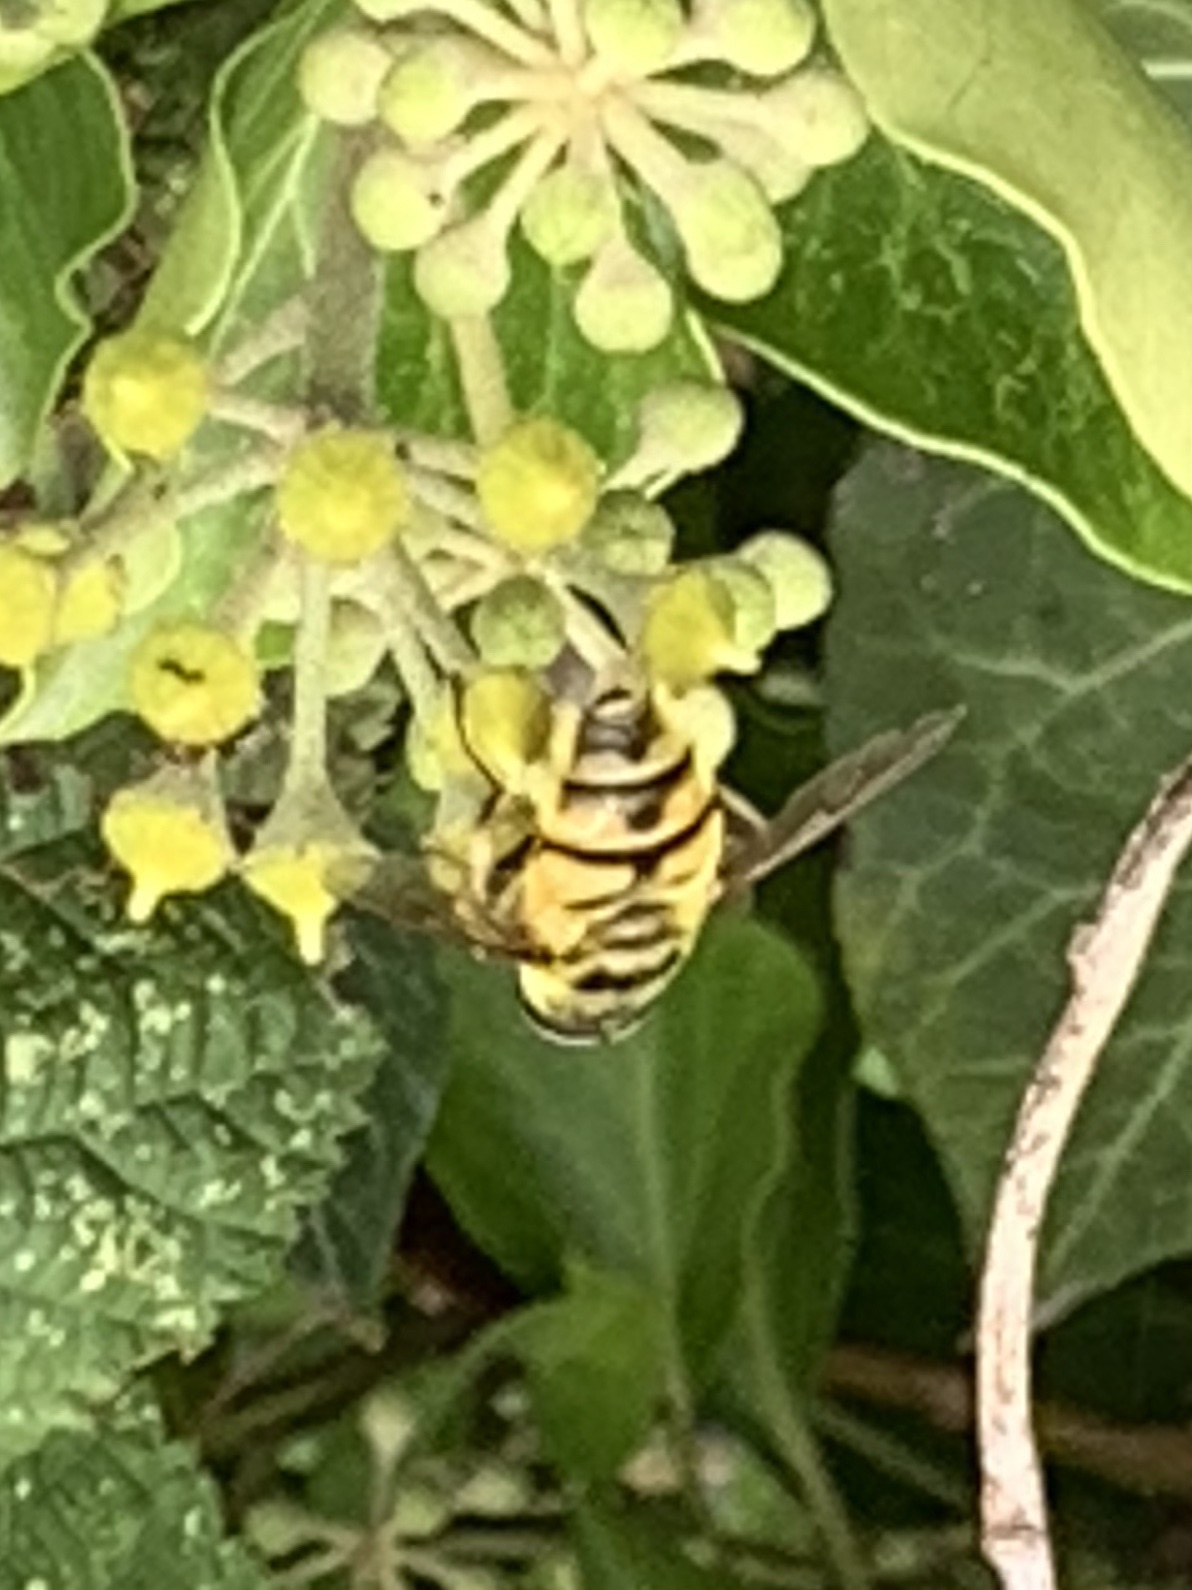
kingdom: Animalia
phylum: Arthropoda
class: Insecta
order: Diptera
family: Syrphidae
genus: Myathropa
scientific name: Myathropa florea
